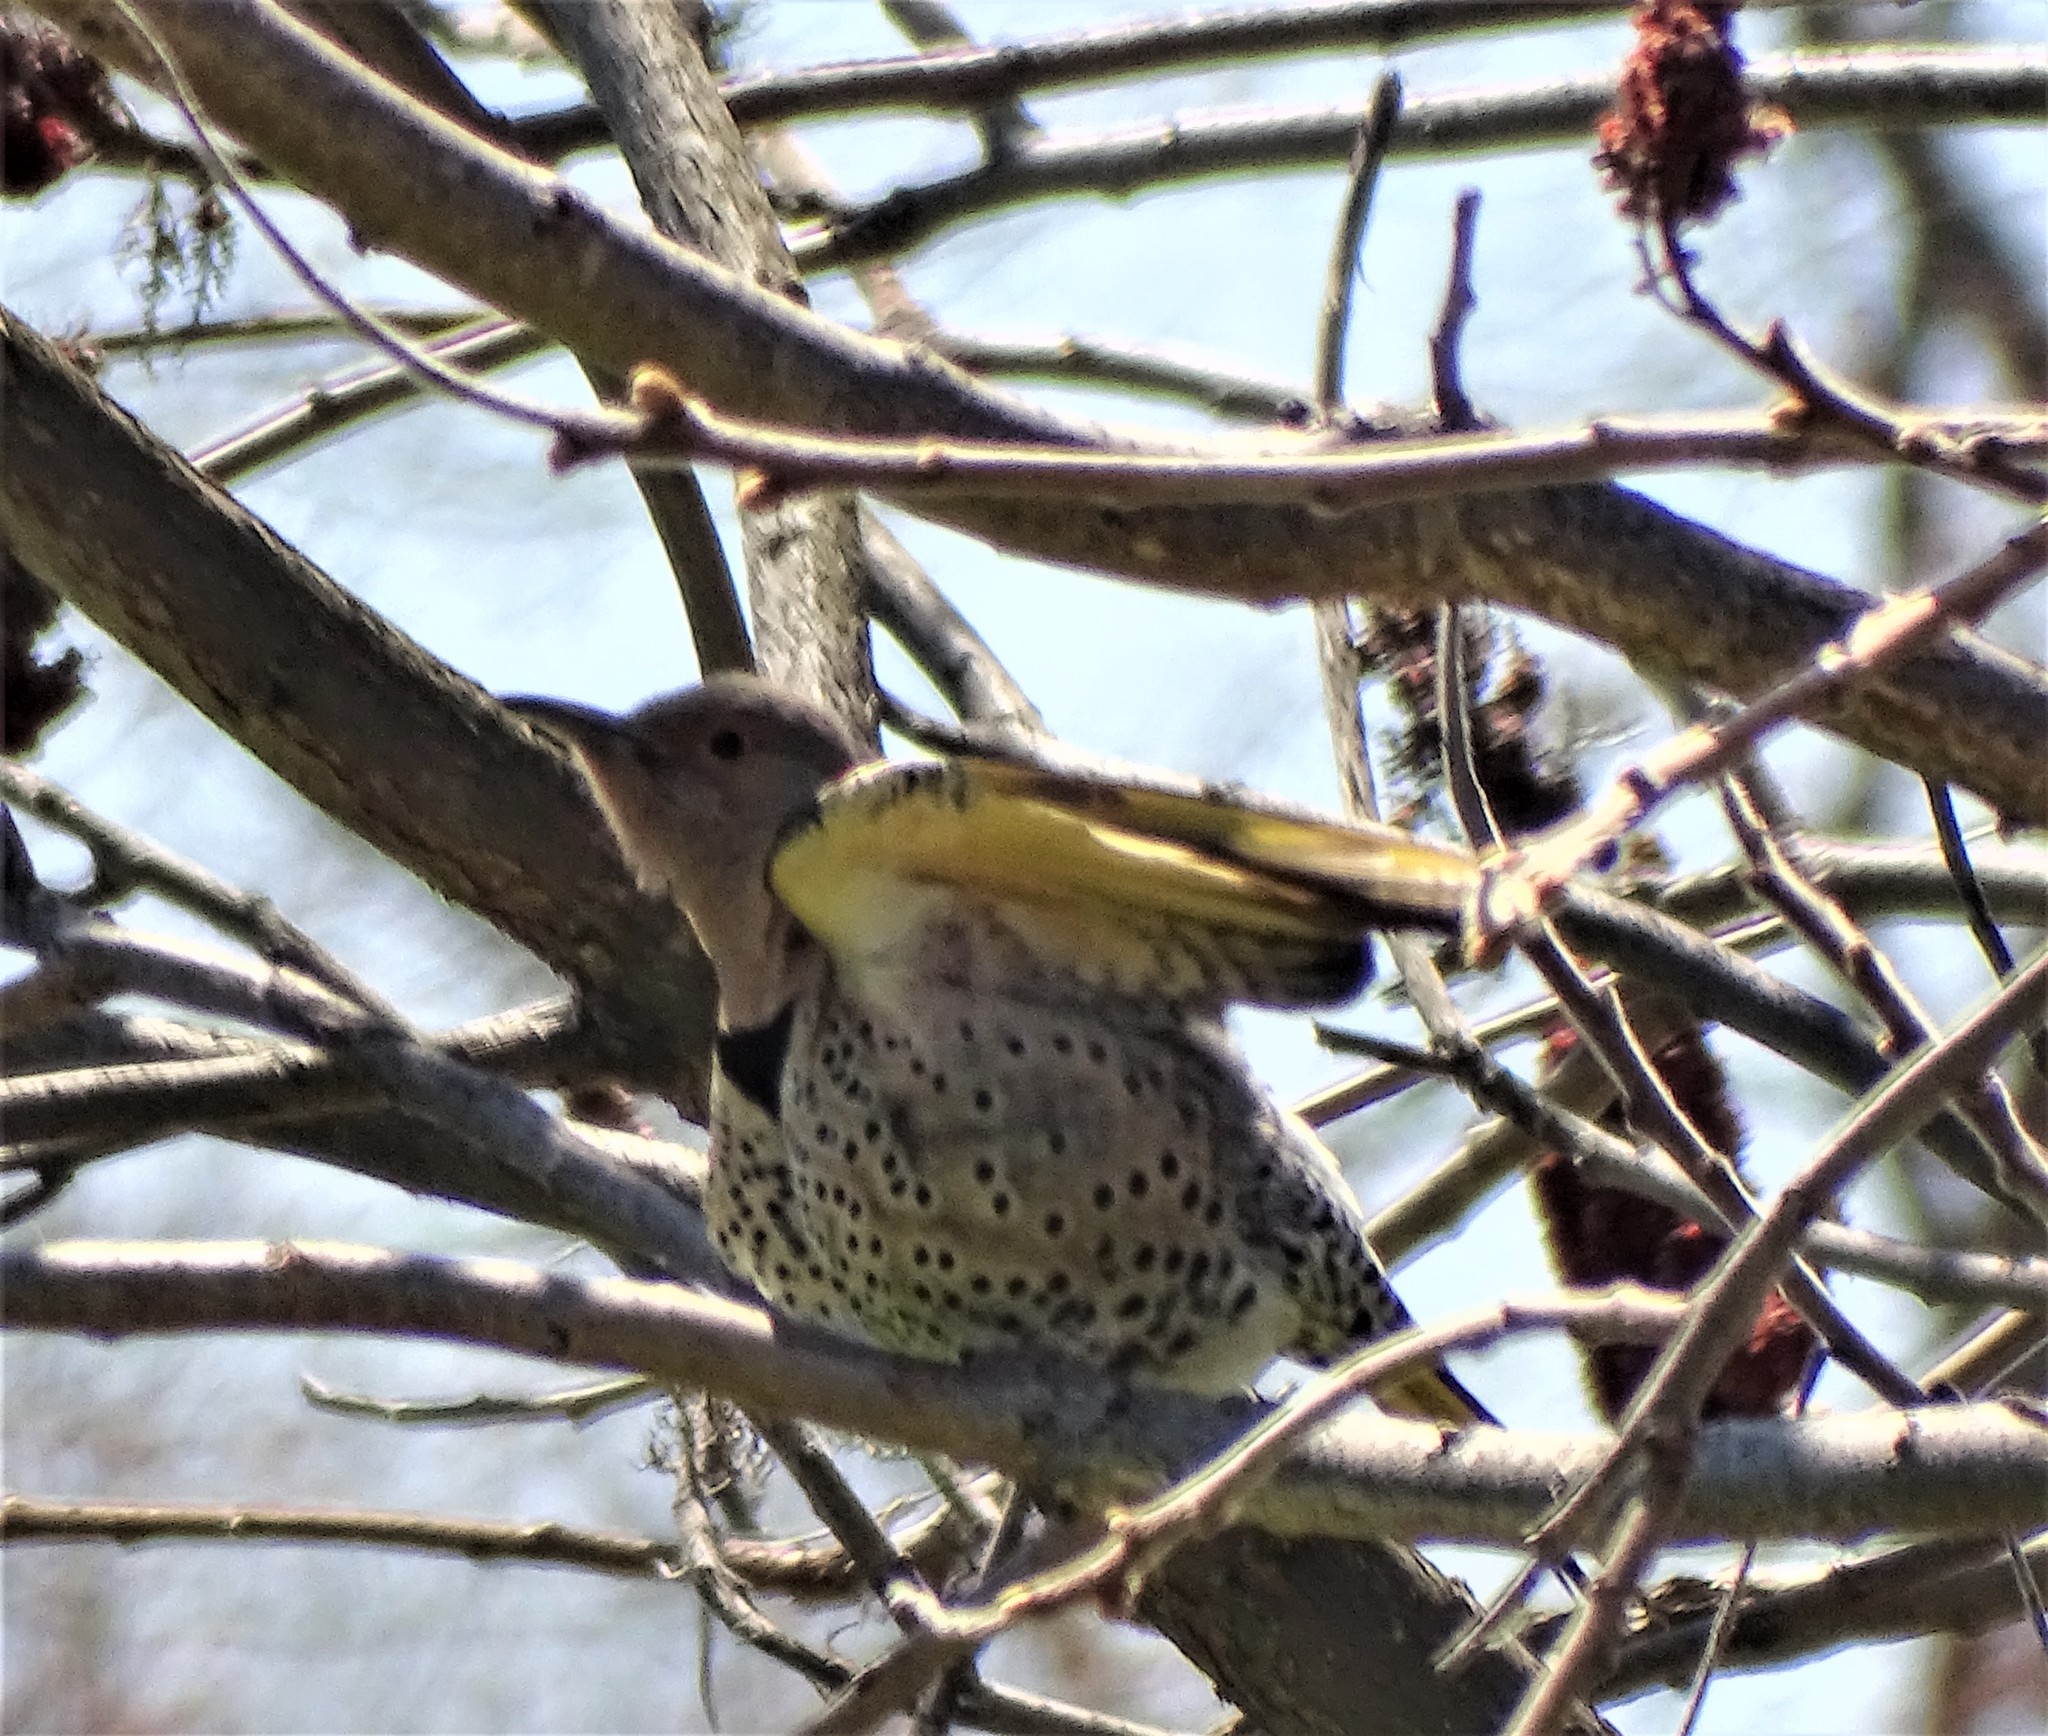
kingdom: Animalia
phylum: Chordata
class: Aves
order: Piciformes
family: Picidae
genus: Colaptes
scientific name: Colaptes auratus
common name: Northern flicker
